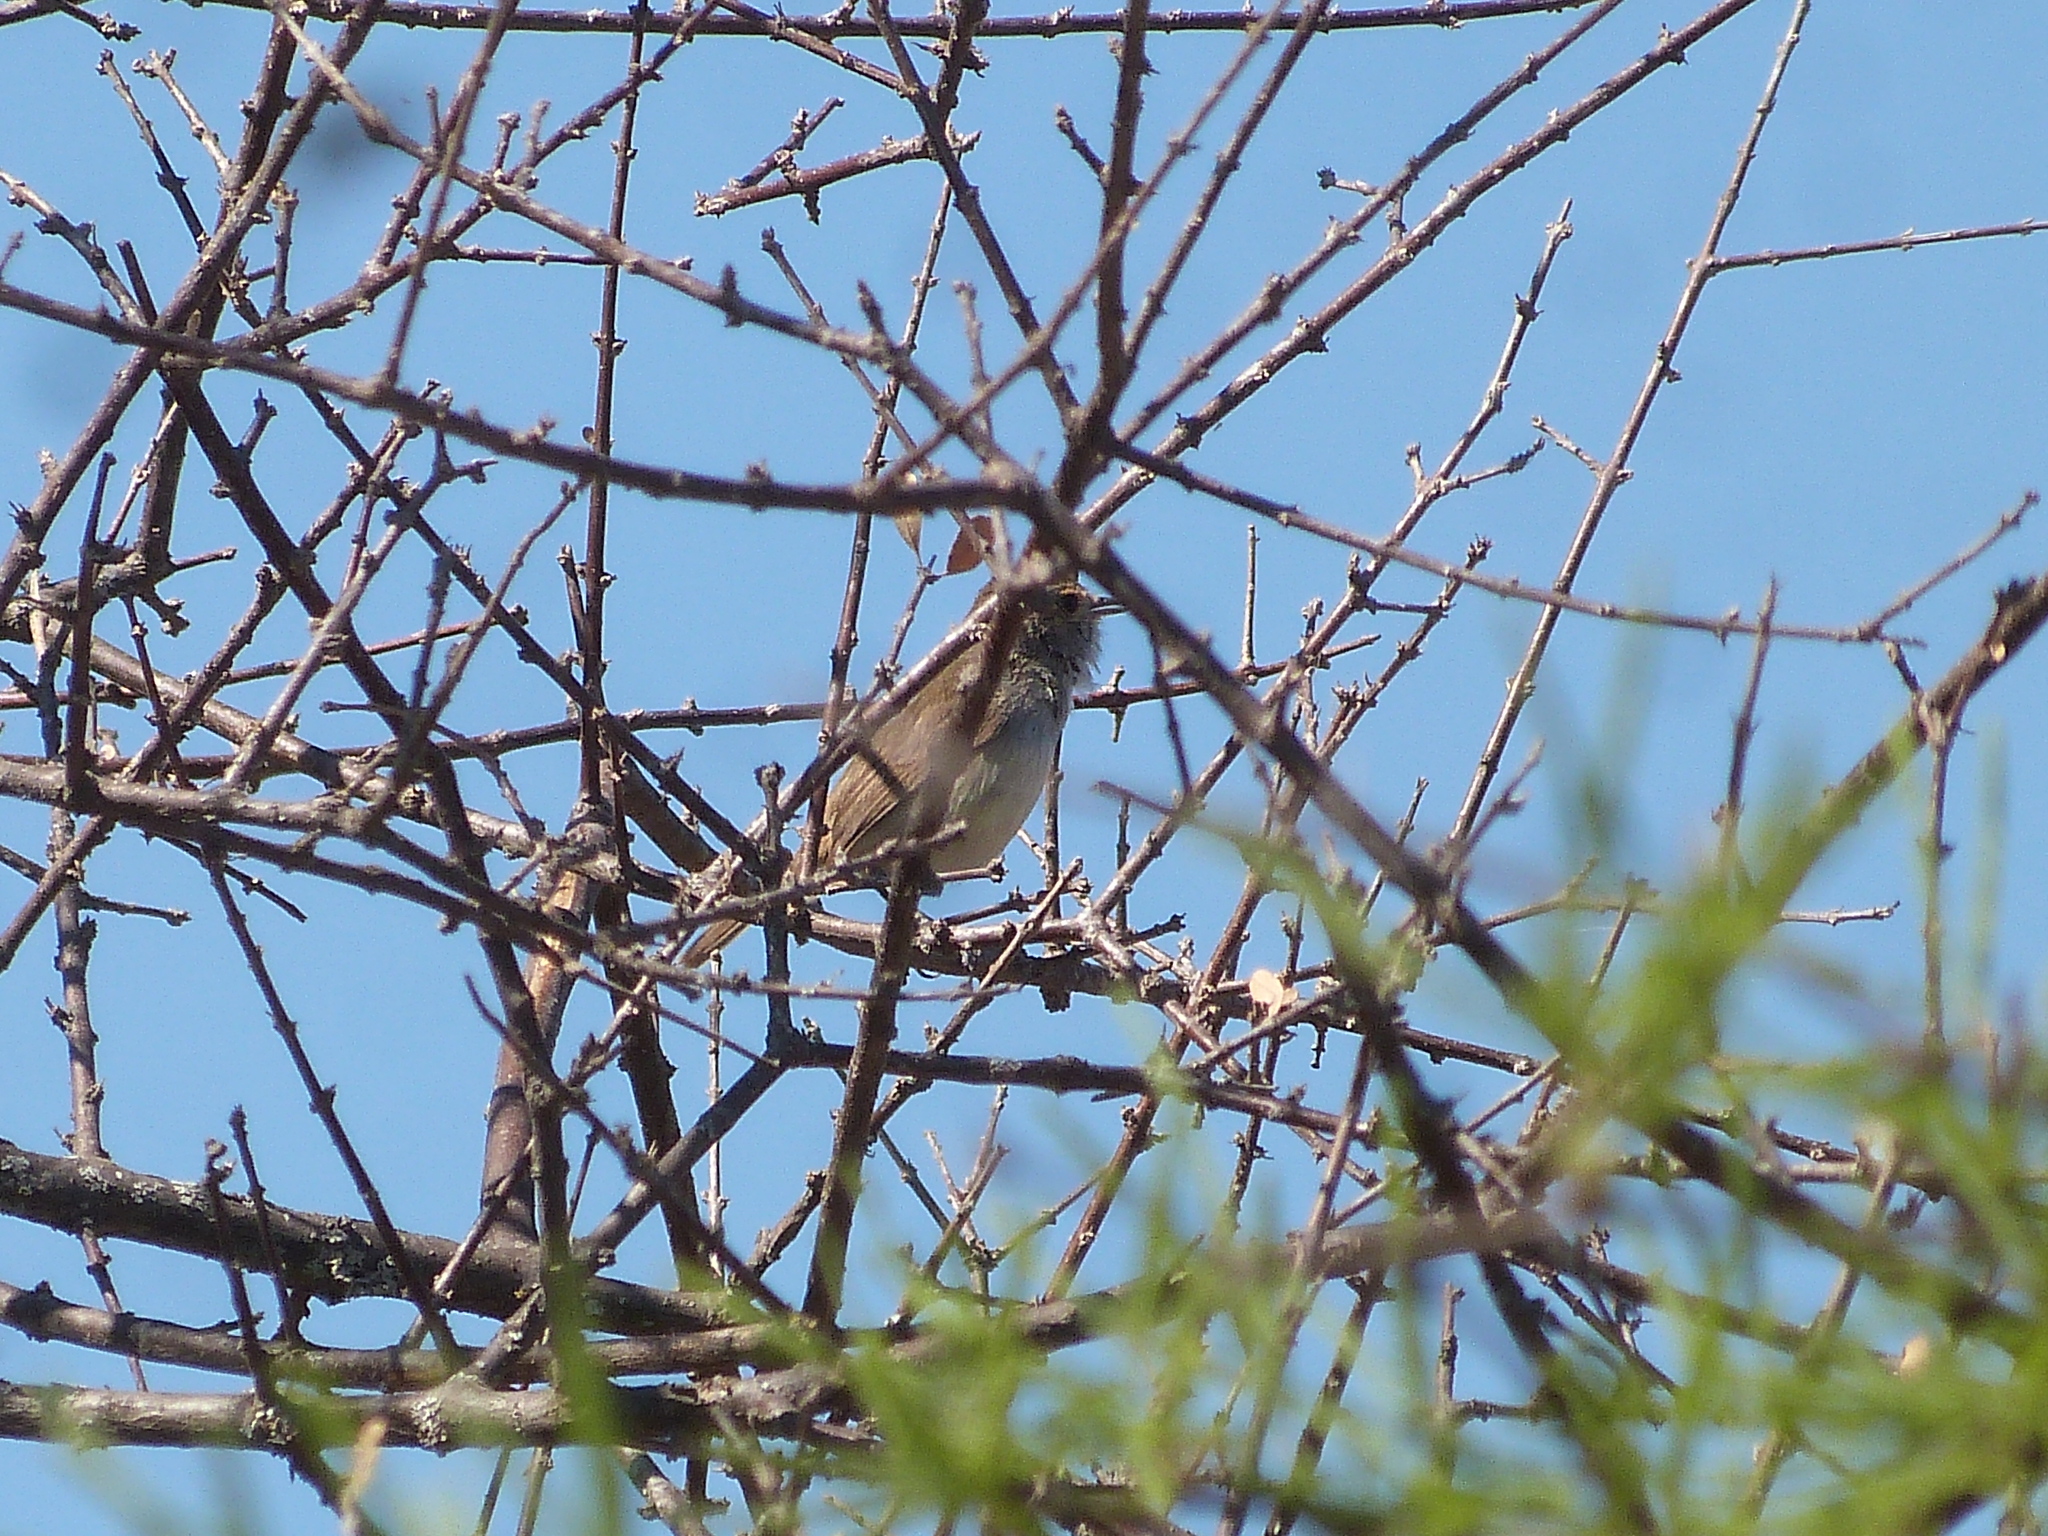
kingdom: Animalia
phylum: Chordata
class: Aves
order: Passeriformes
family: Tyrannidae
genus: Euscarthmus
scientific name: Euscarthmus meloryphus
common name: Tawny-crowned pygmy tyrant
